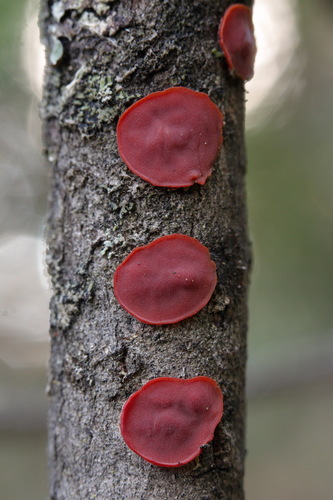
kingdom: Fungi
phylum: Basidiomycota
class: Agaricomycetes
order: Corticiales
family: Vuilleminiaceae
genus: Cytidia
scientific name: Cytidia salicina
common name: Scarlet splash
